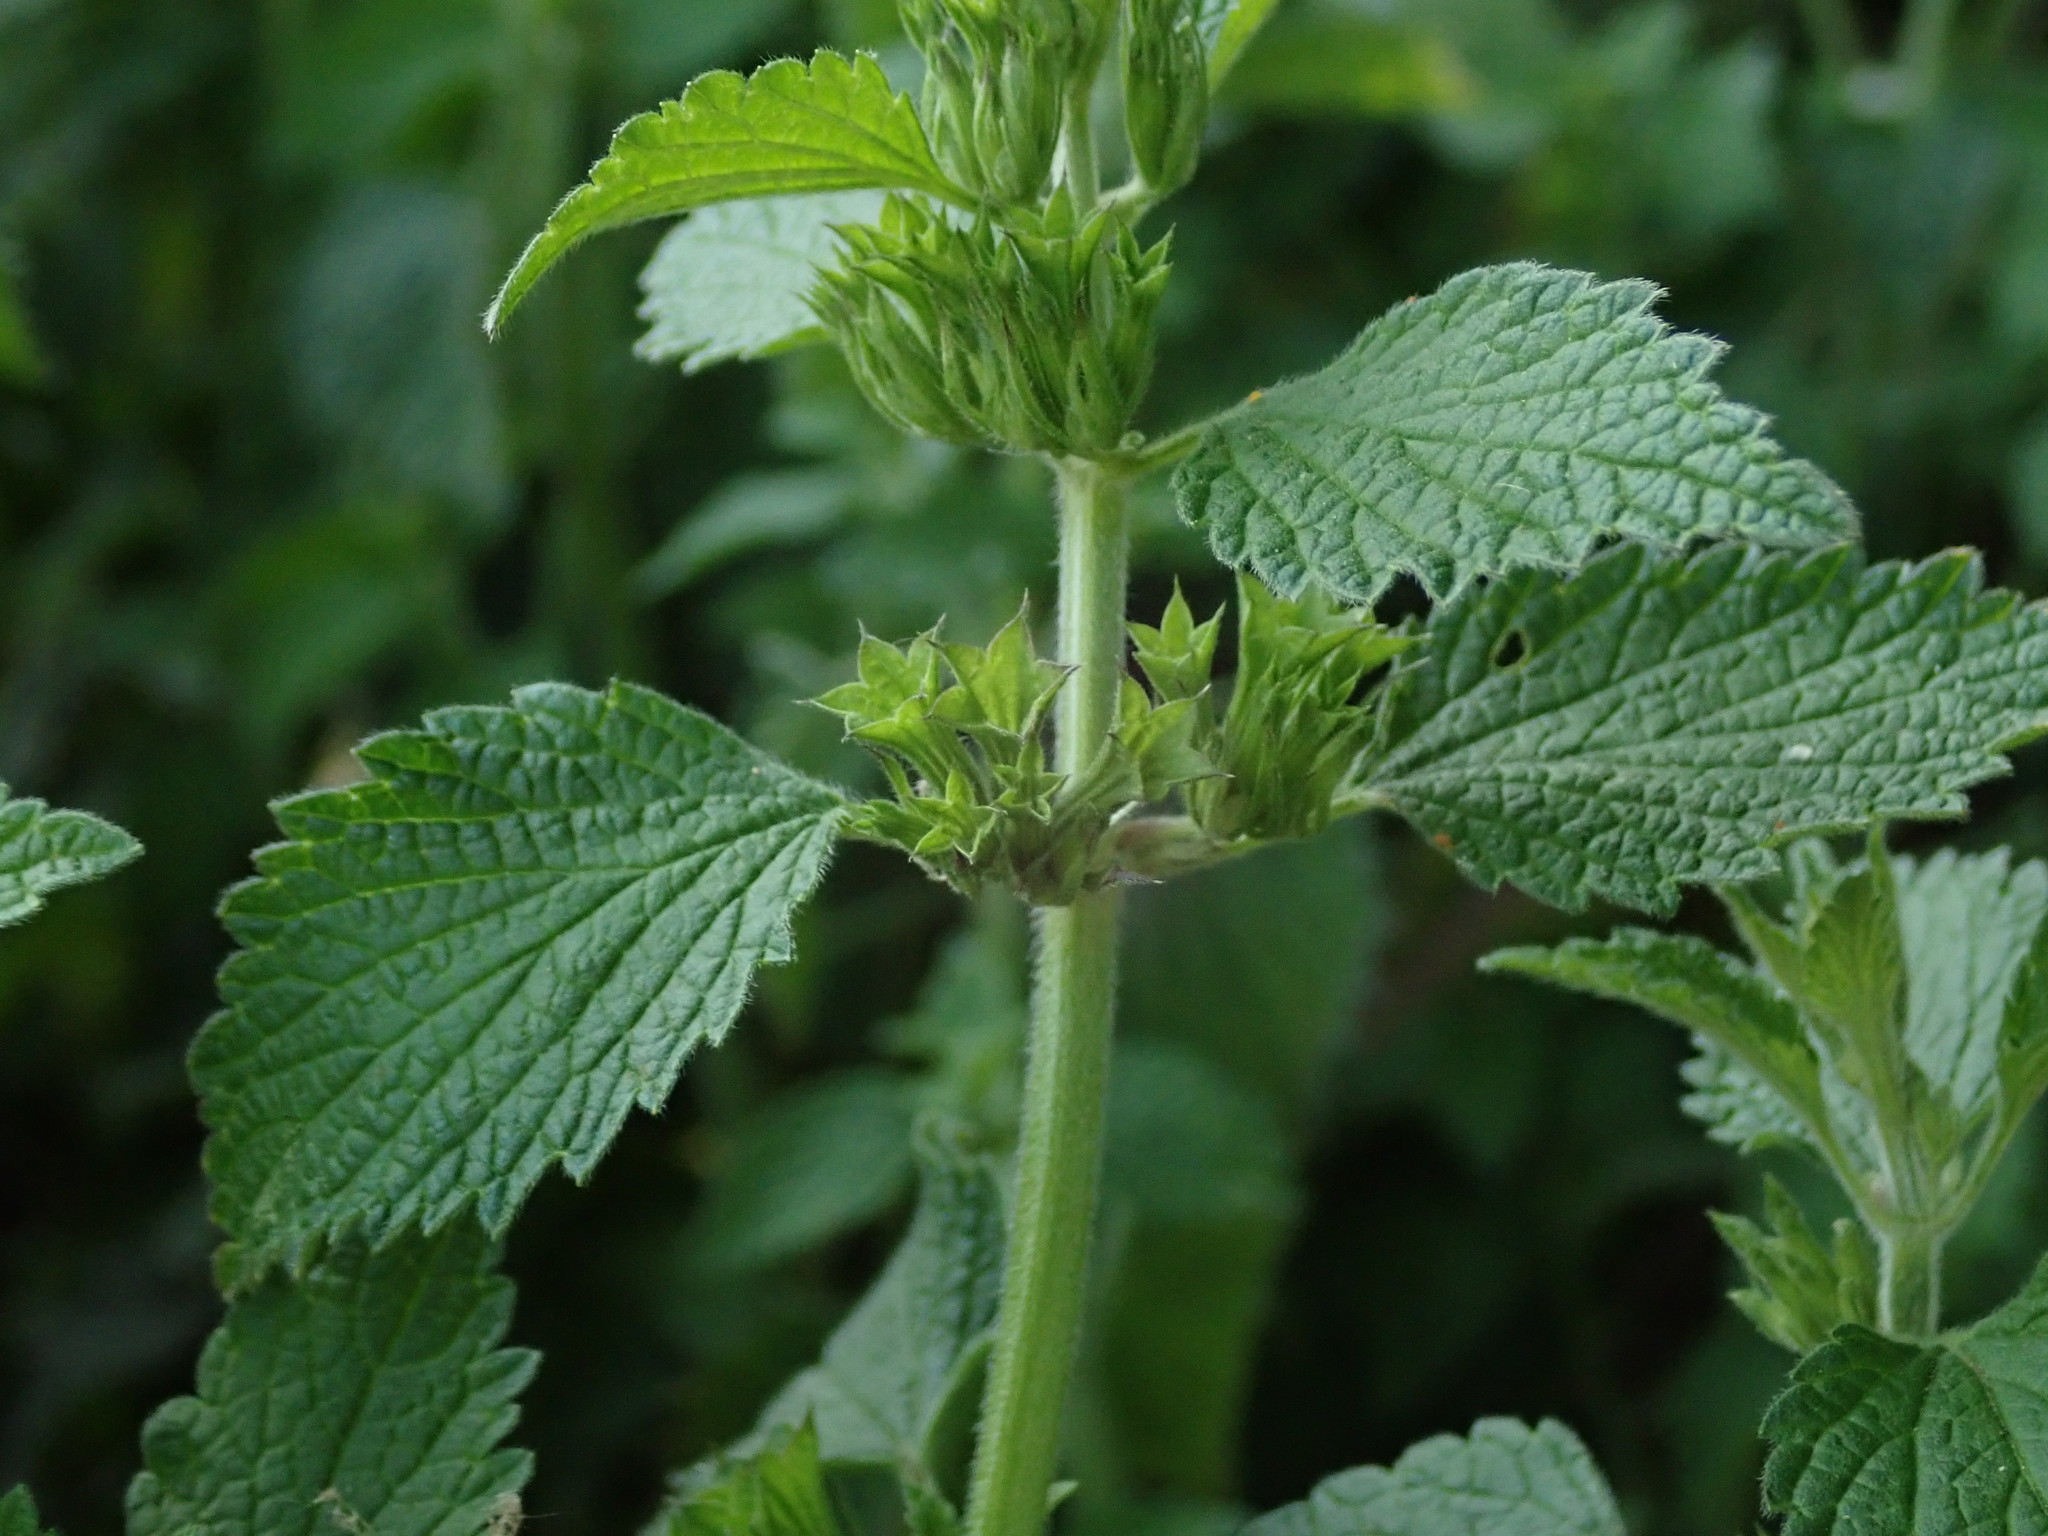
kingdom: Plantae
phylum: Tracheophyta
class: Magnoliopsida
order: Lamiales
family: Lamiaceae
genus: Ballota
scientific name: Ballota nigra
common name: Black horehound
